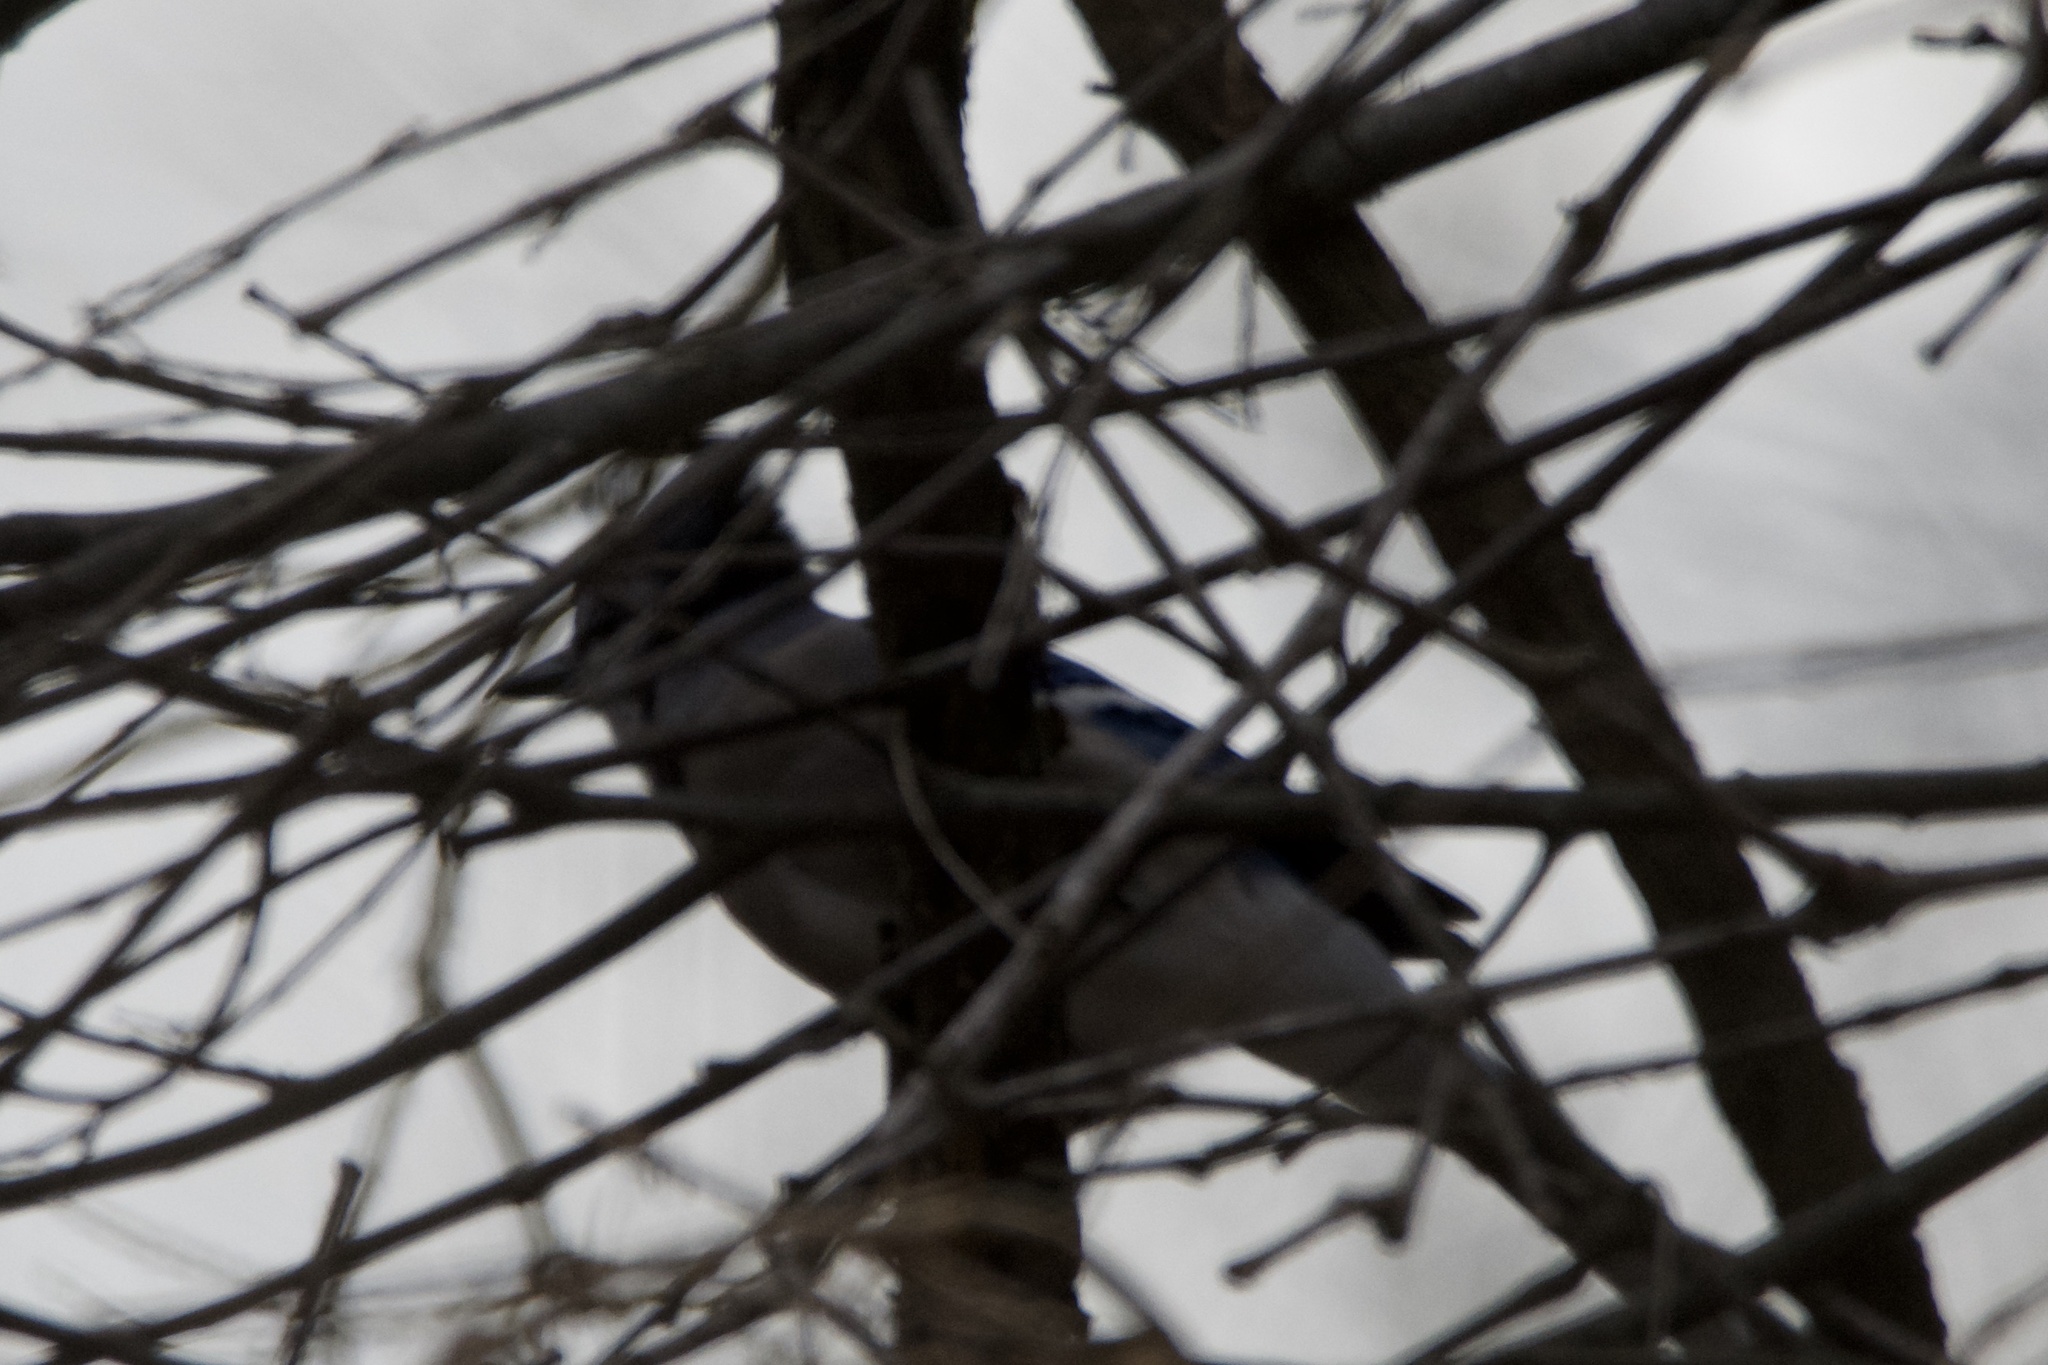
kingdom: Animalia
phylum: Chordata
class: Aves
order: Passeriformes
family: Corvidae
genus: Cyanocitta
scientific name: Cyanocitta cristata
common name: Blue jay
